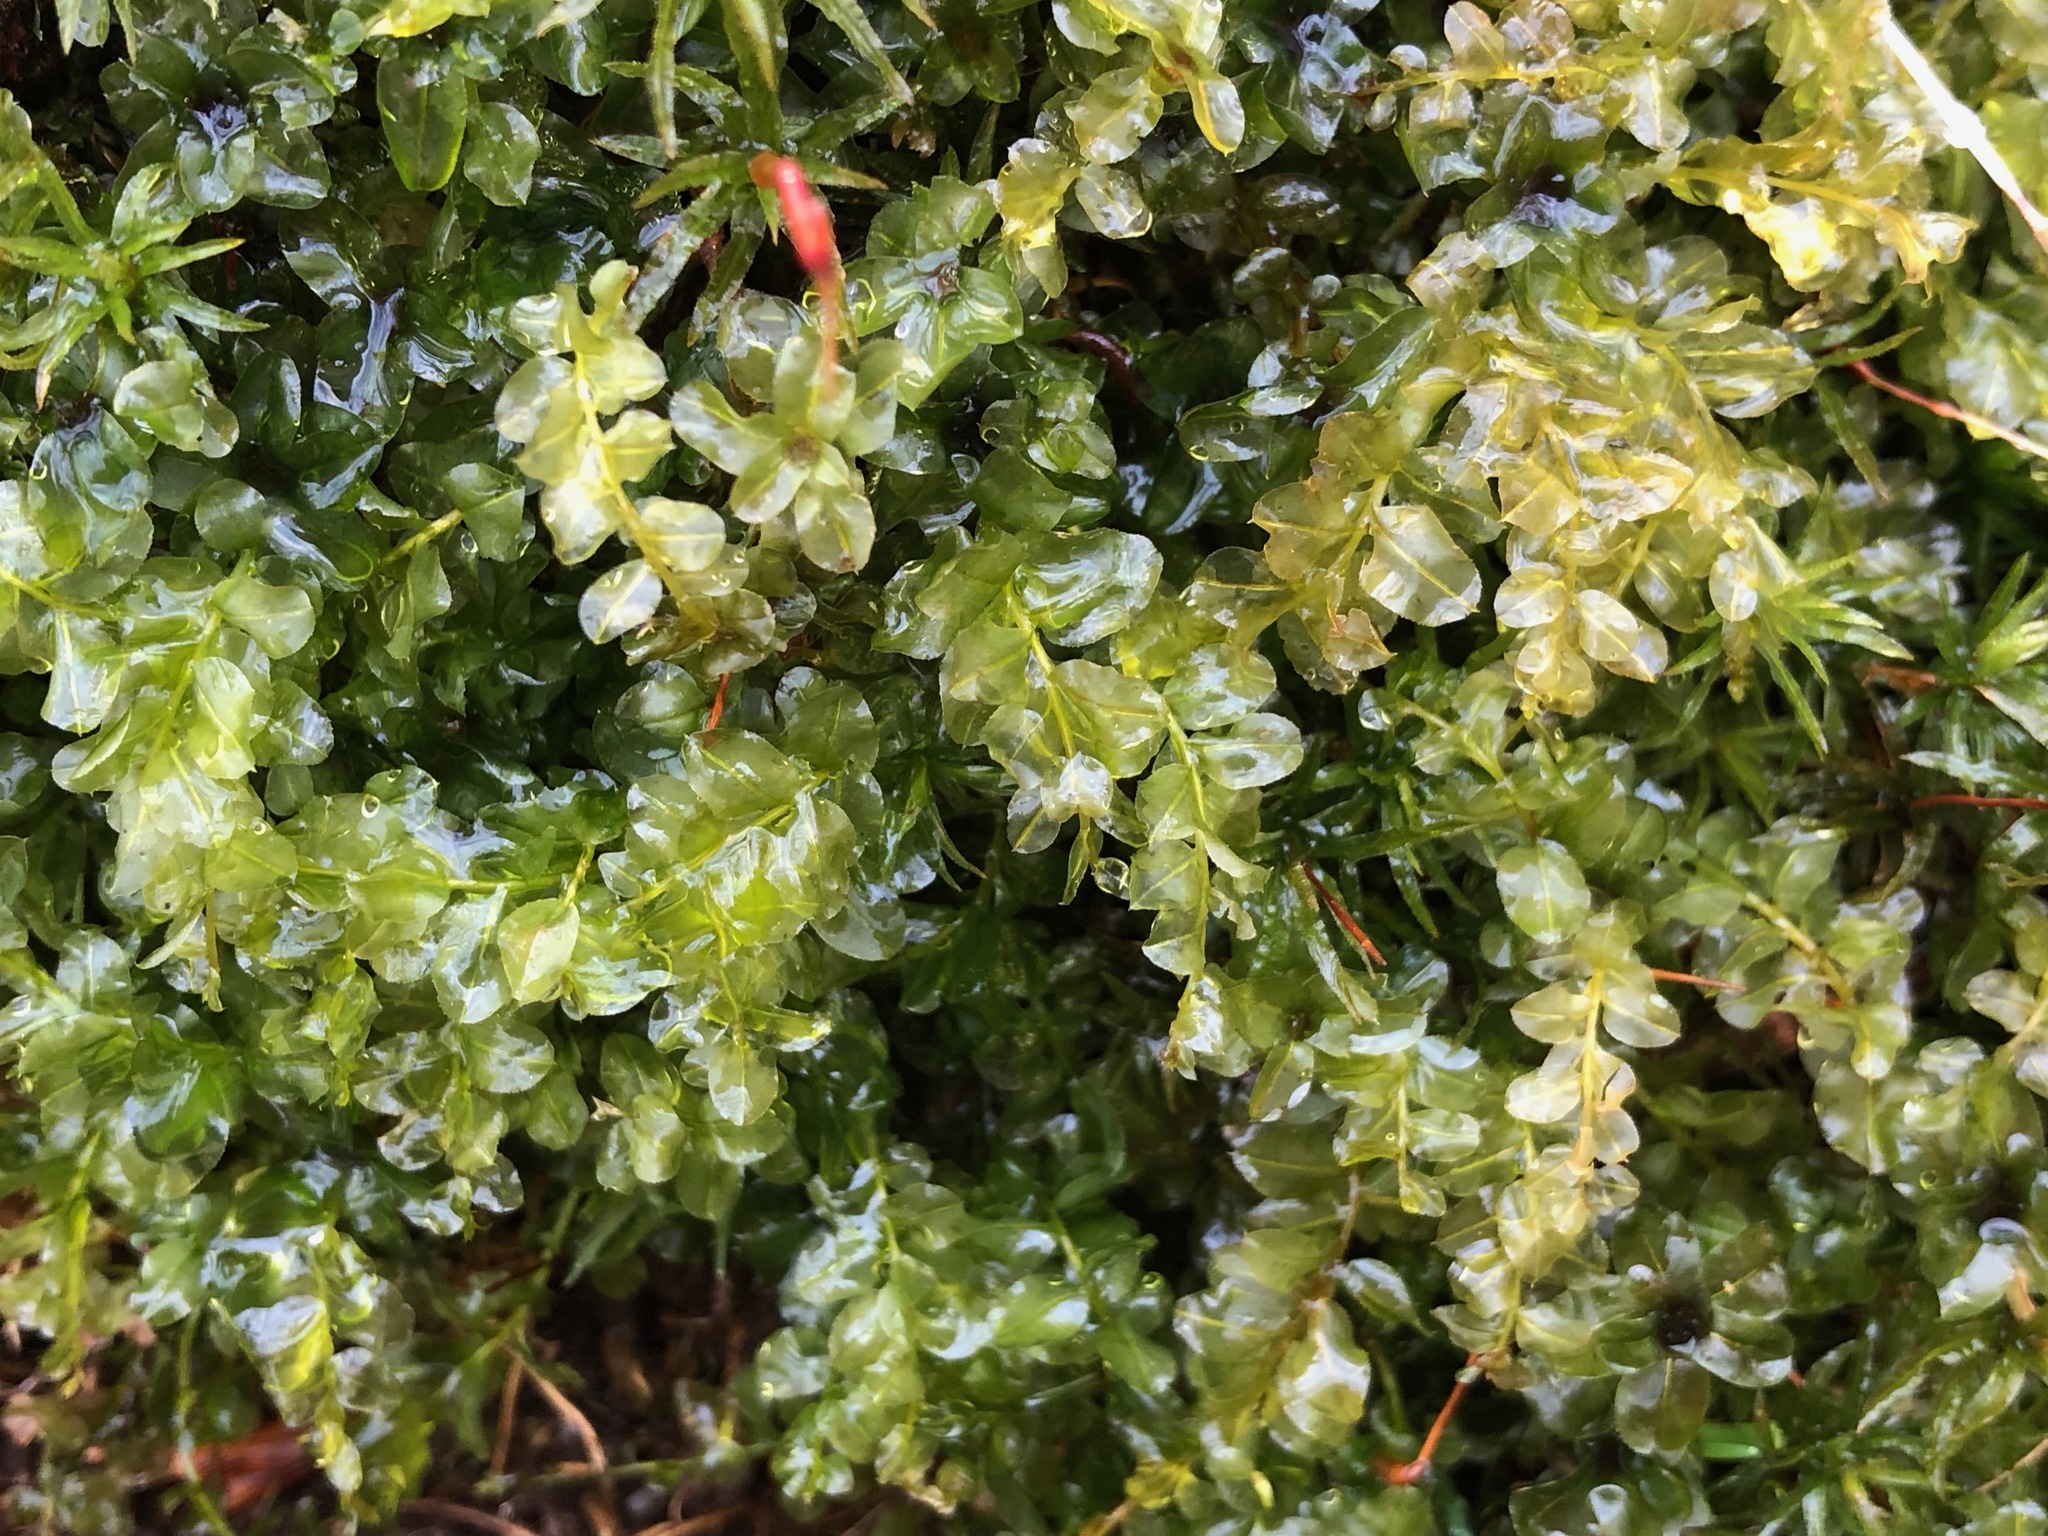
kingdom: Plantae
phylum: Bryophyta
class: Bryopsida
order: Bryales
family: Mniaceae
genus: Plagiomnium
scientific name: Plagiomnium affine
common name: Many-fruited thyme-moss
